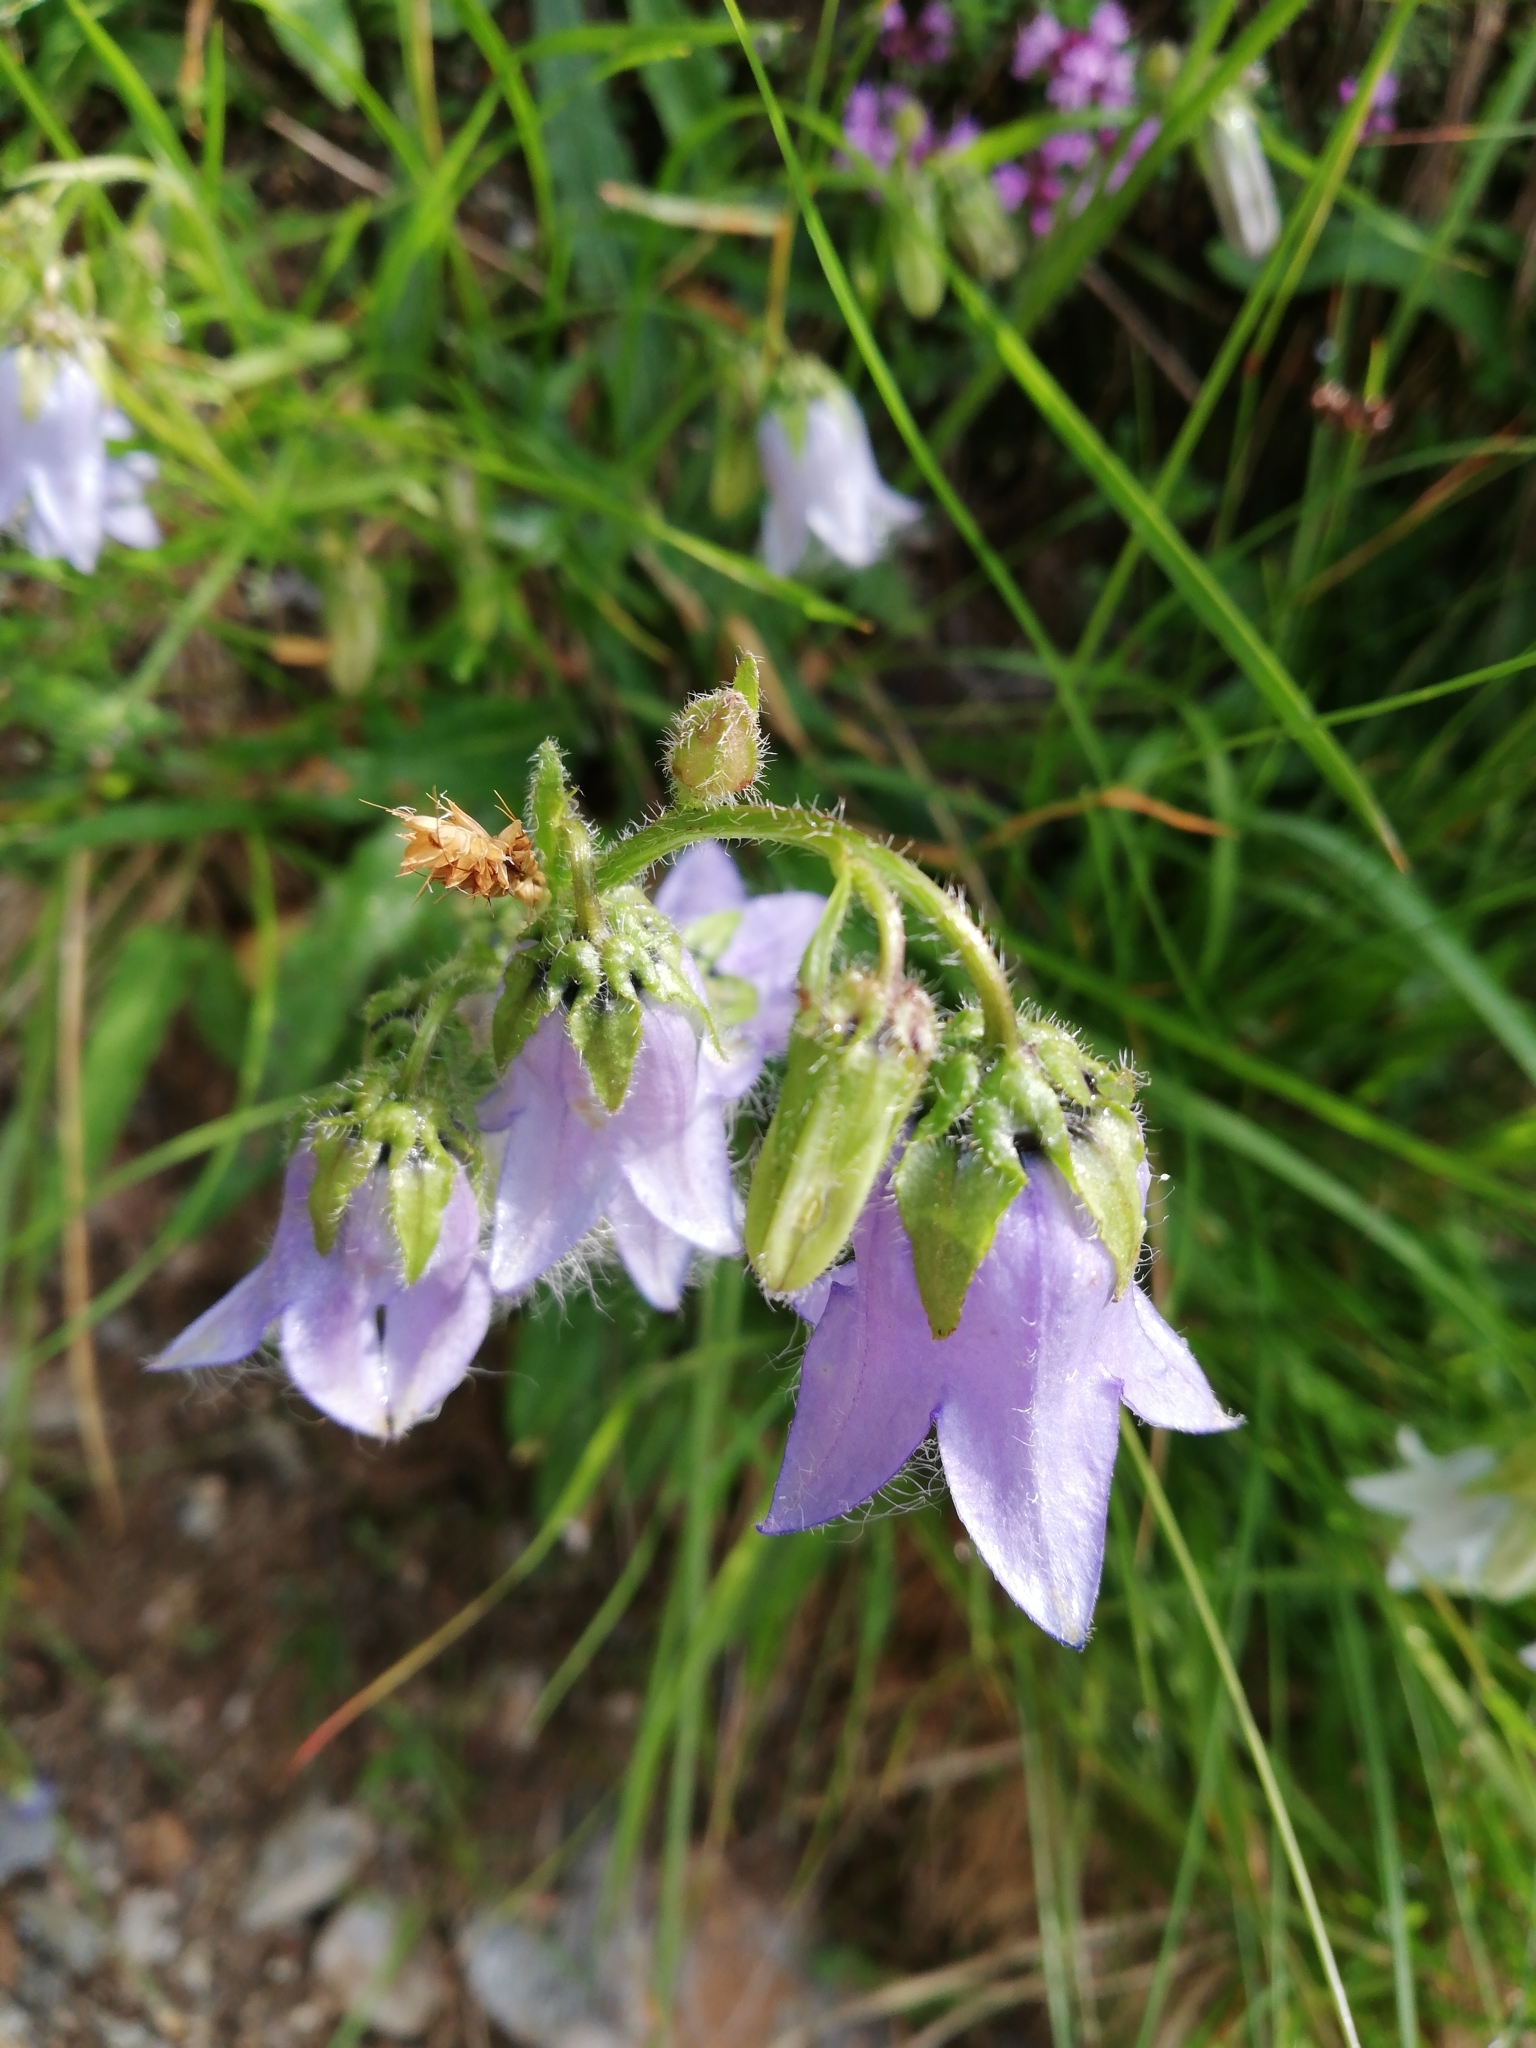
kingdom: Plantae
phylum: Tracheophyta
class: Magnoliopsida
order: Asterales
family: Campanulaceae
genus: Campanula
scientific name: Campanula barbata
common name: Bearded bellflower
